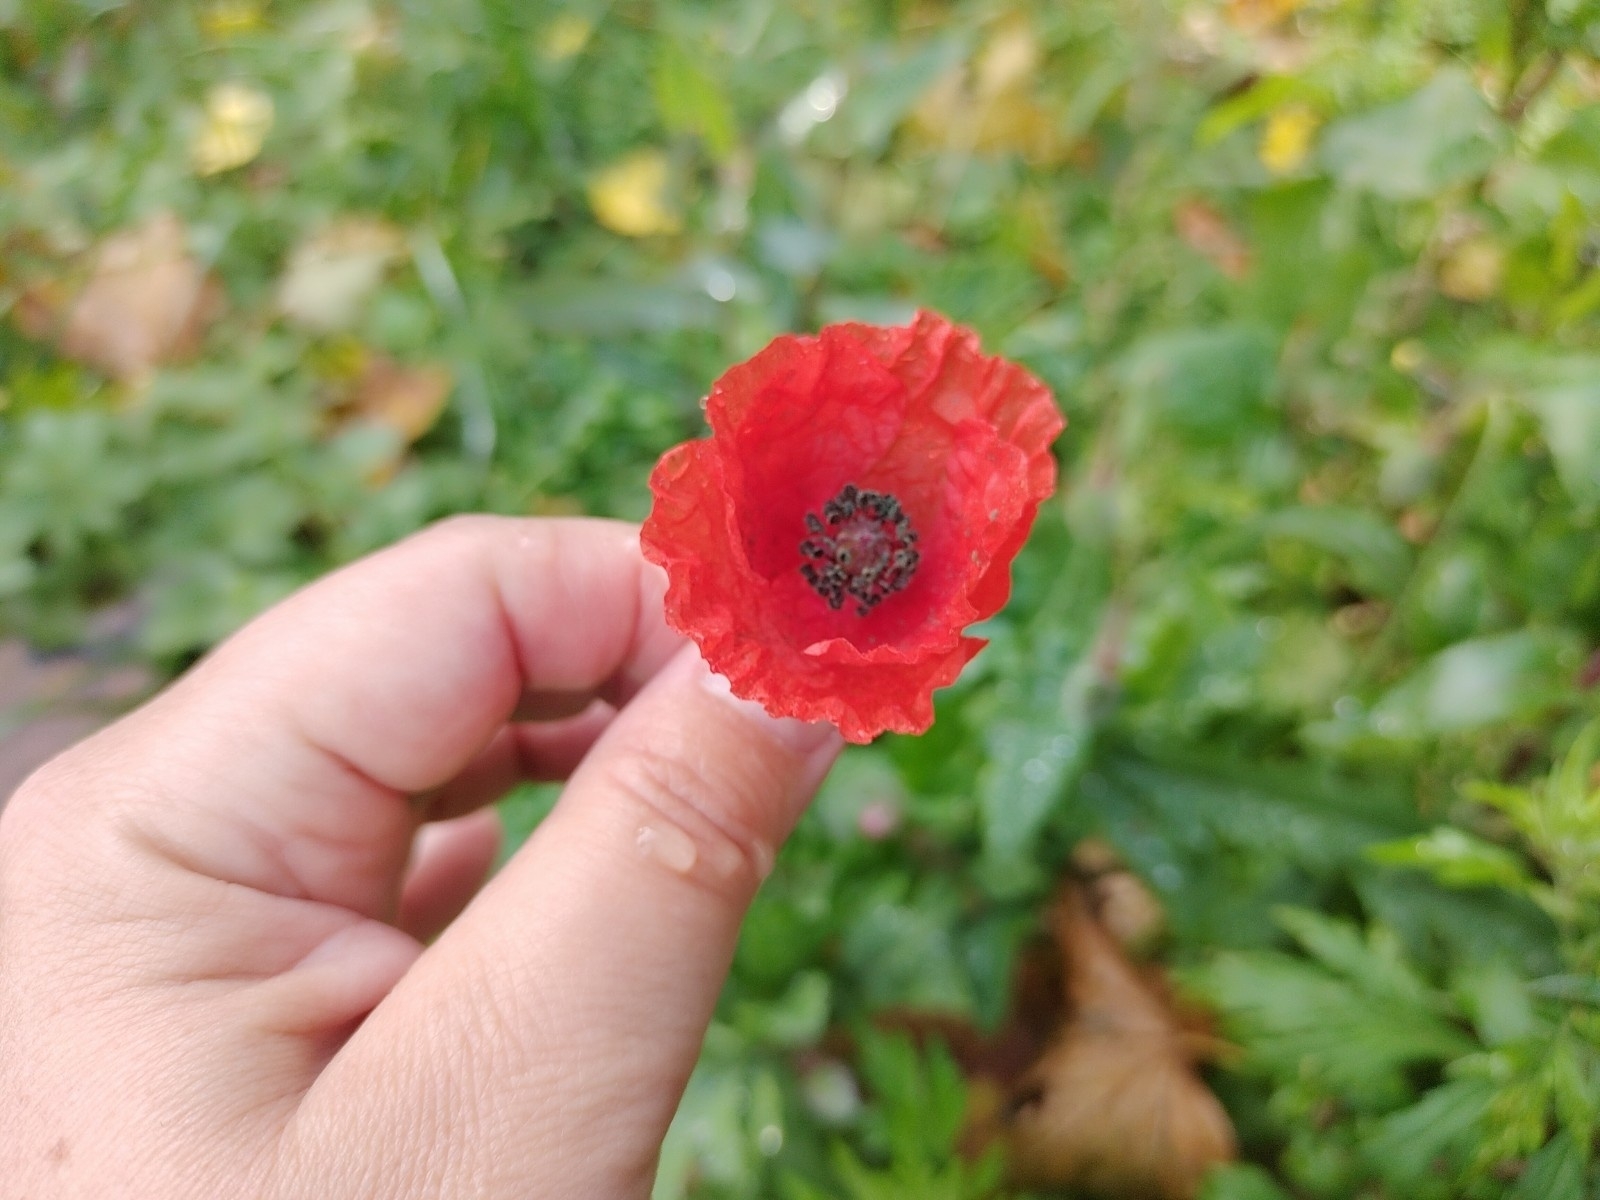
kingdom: Plantae
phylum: Tracheophyta
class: Magnoliopsida
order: Ranunculales
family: Papaveraceae
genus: Papaver
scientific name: Papaver rhoeas
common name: Corn poppy
